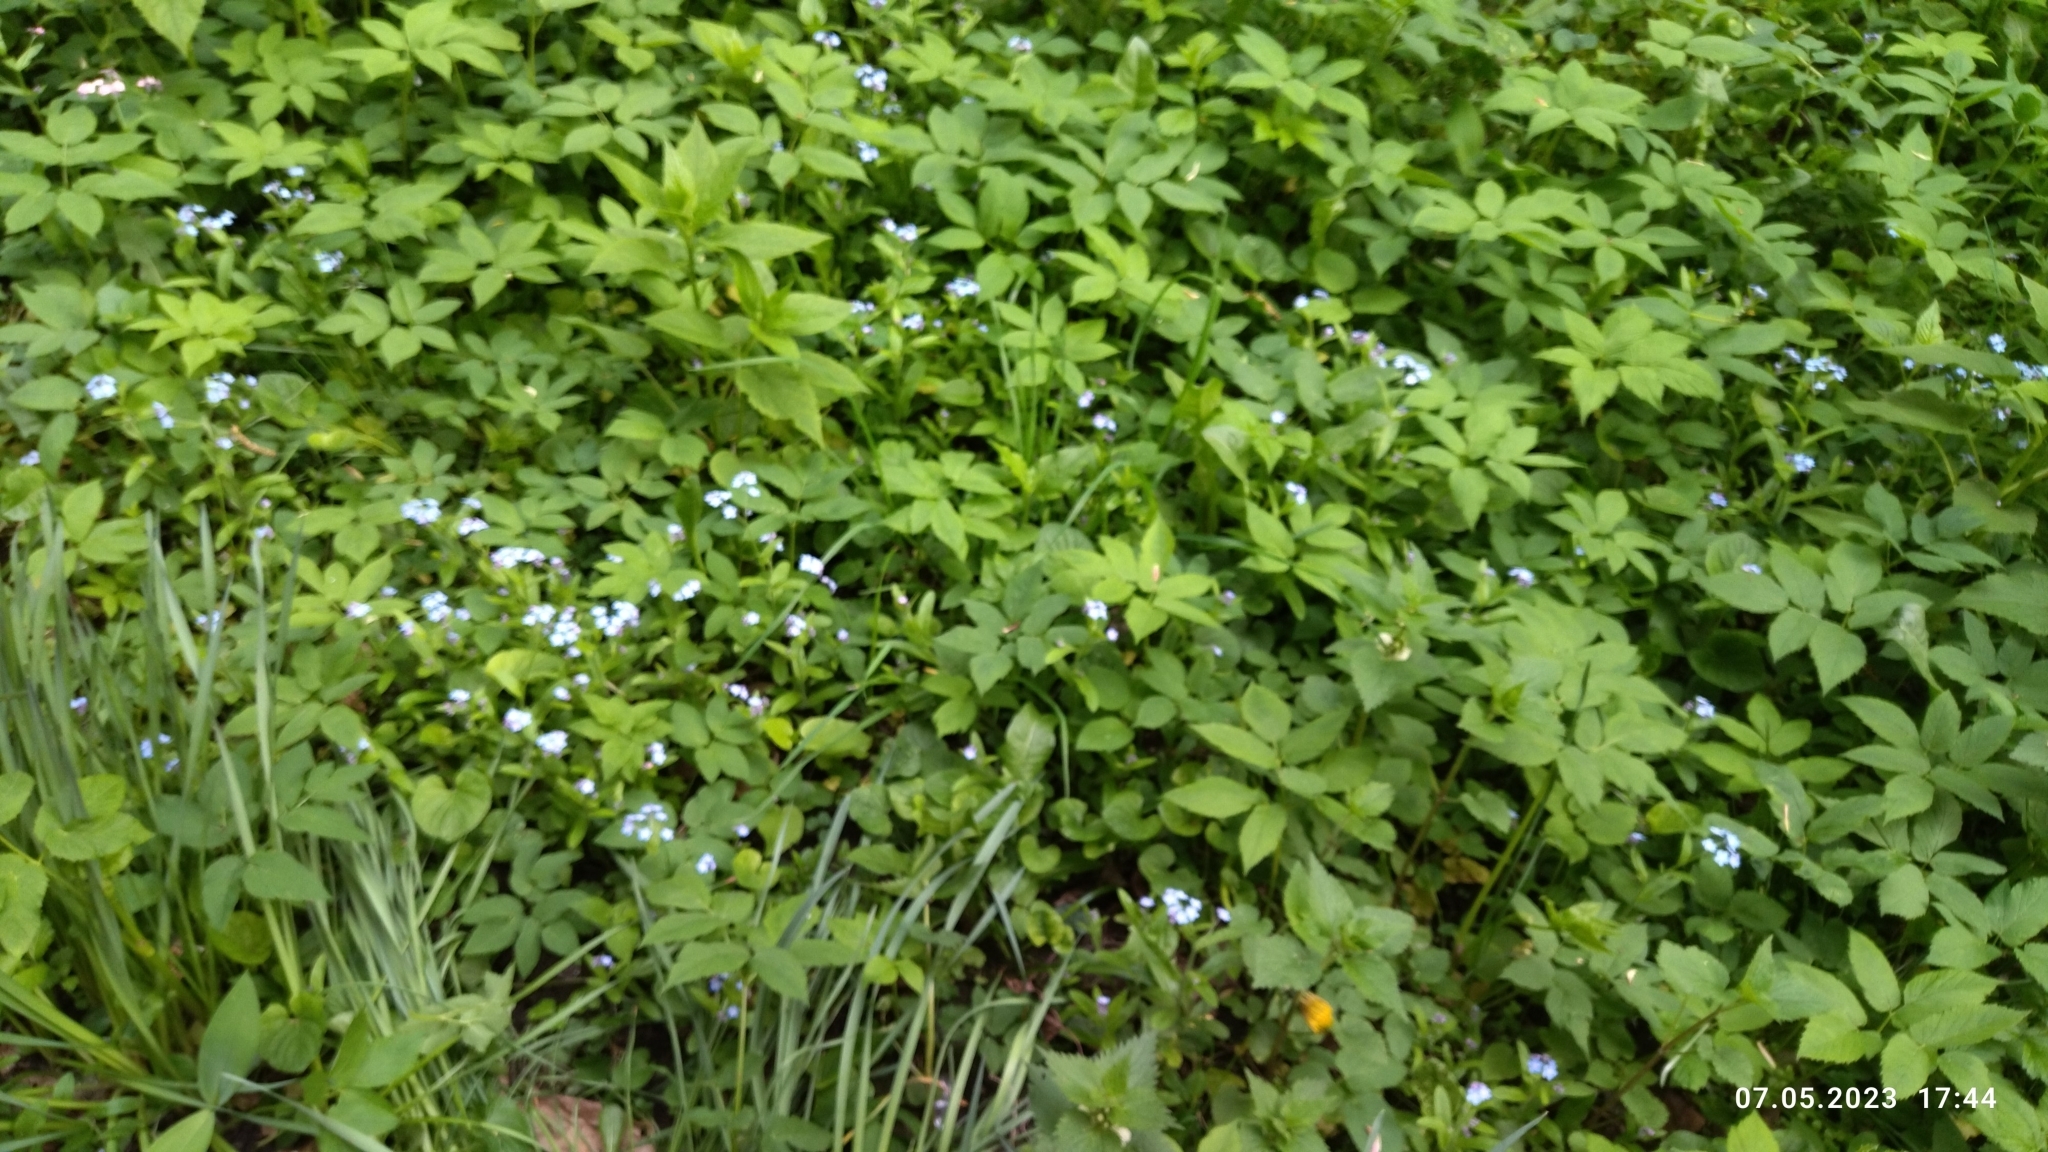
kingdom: Plantae
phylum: Tracheophyta
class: Magnoliopsida
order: Boraginales
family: Boraginaceae
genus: Myosotis
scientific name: Myosotis sylvatica
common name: Wood forget-me-not
